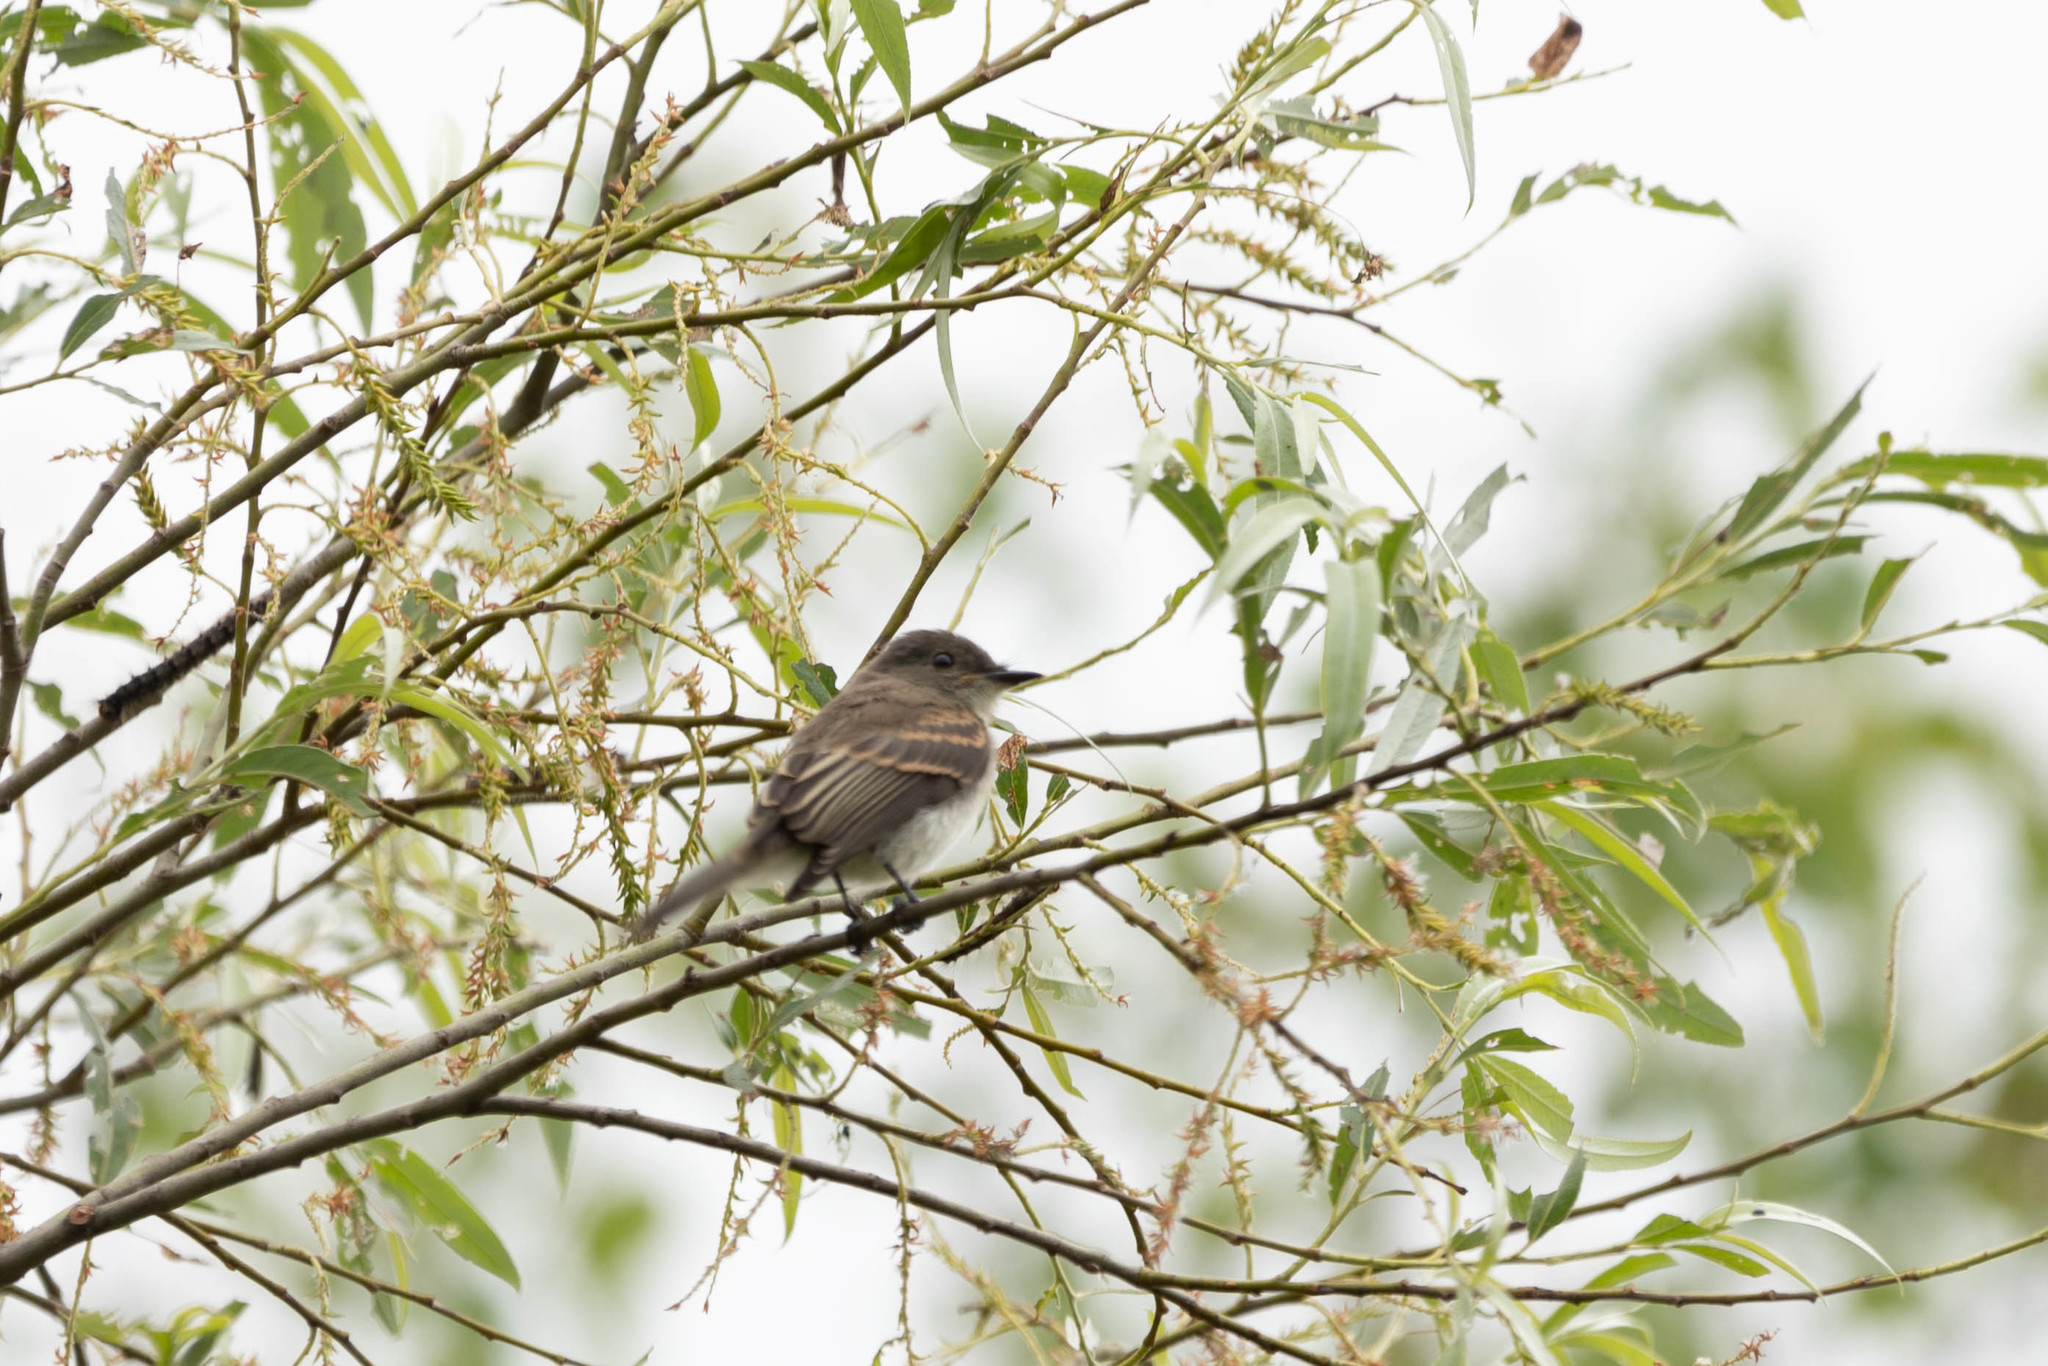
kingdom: Animalia
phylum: Chordata
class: Aves
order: Passeriformes
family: Tyrannidae
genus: Sayornis
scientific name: Sayornis phoebe
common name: Eastern phoebe
